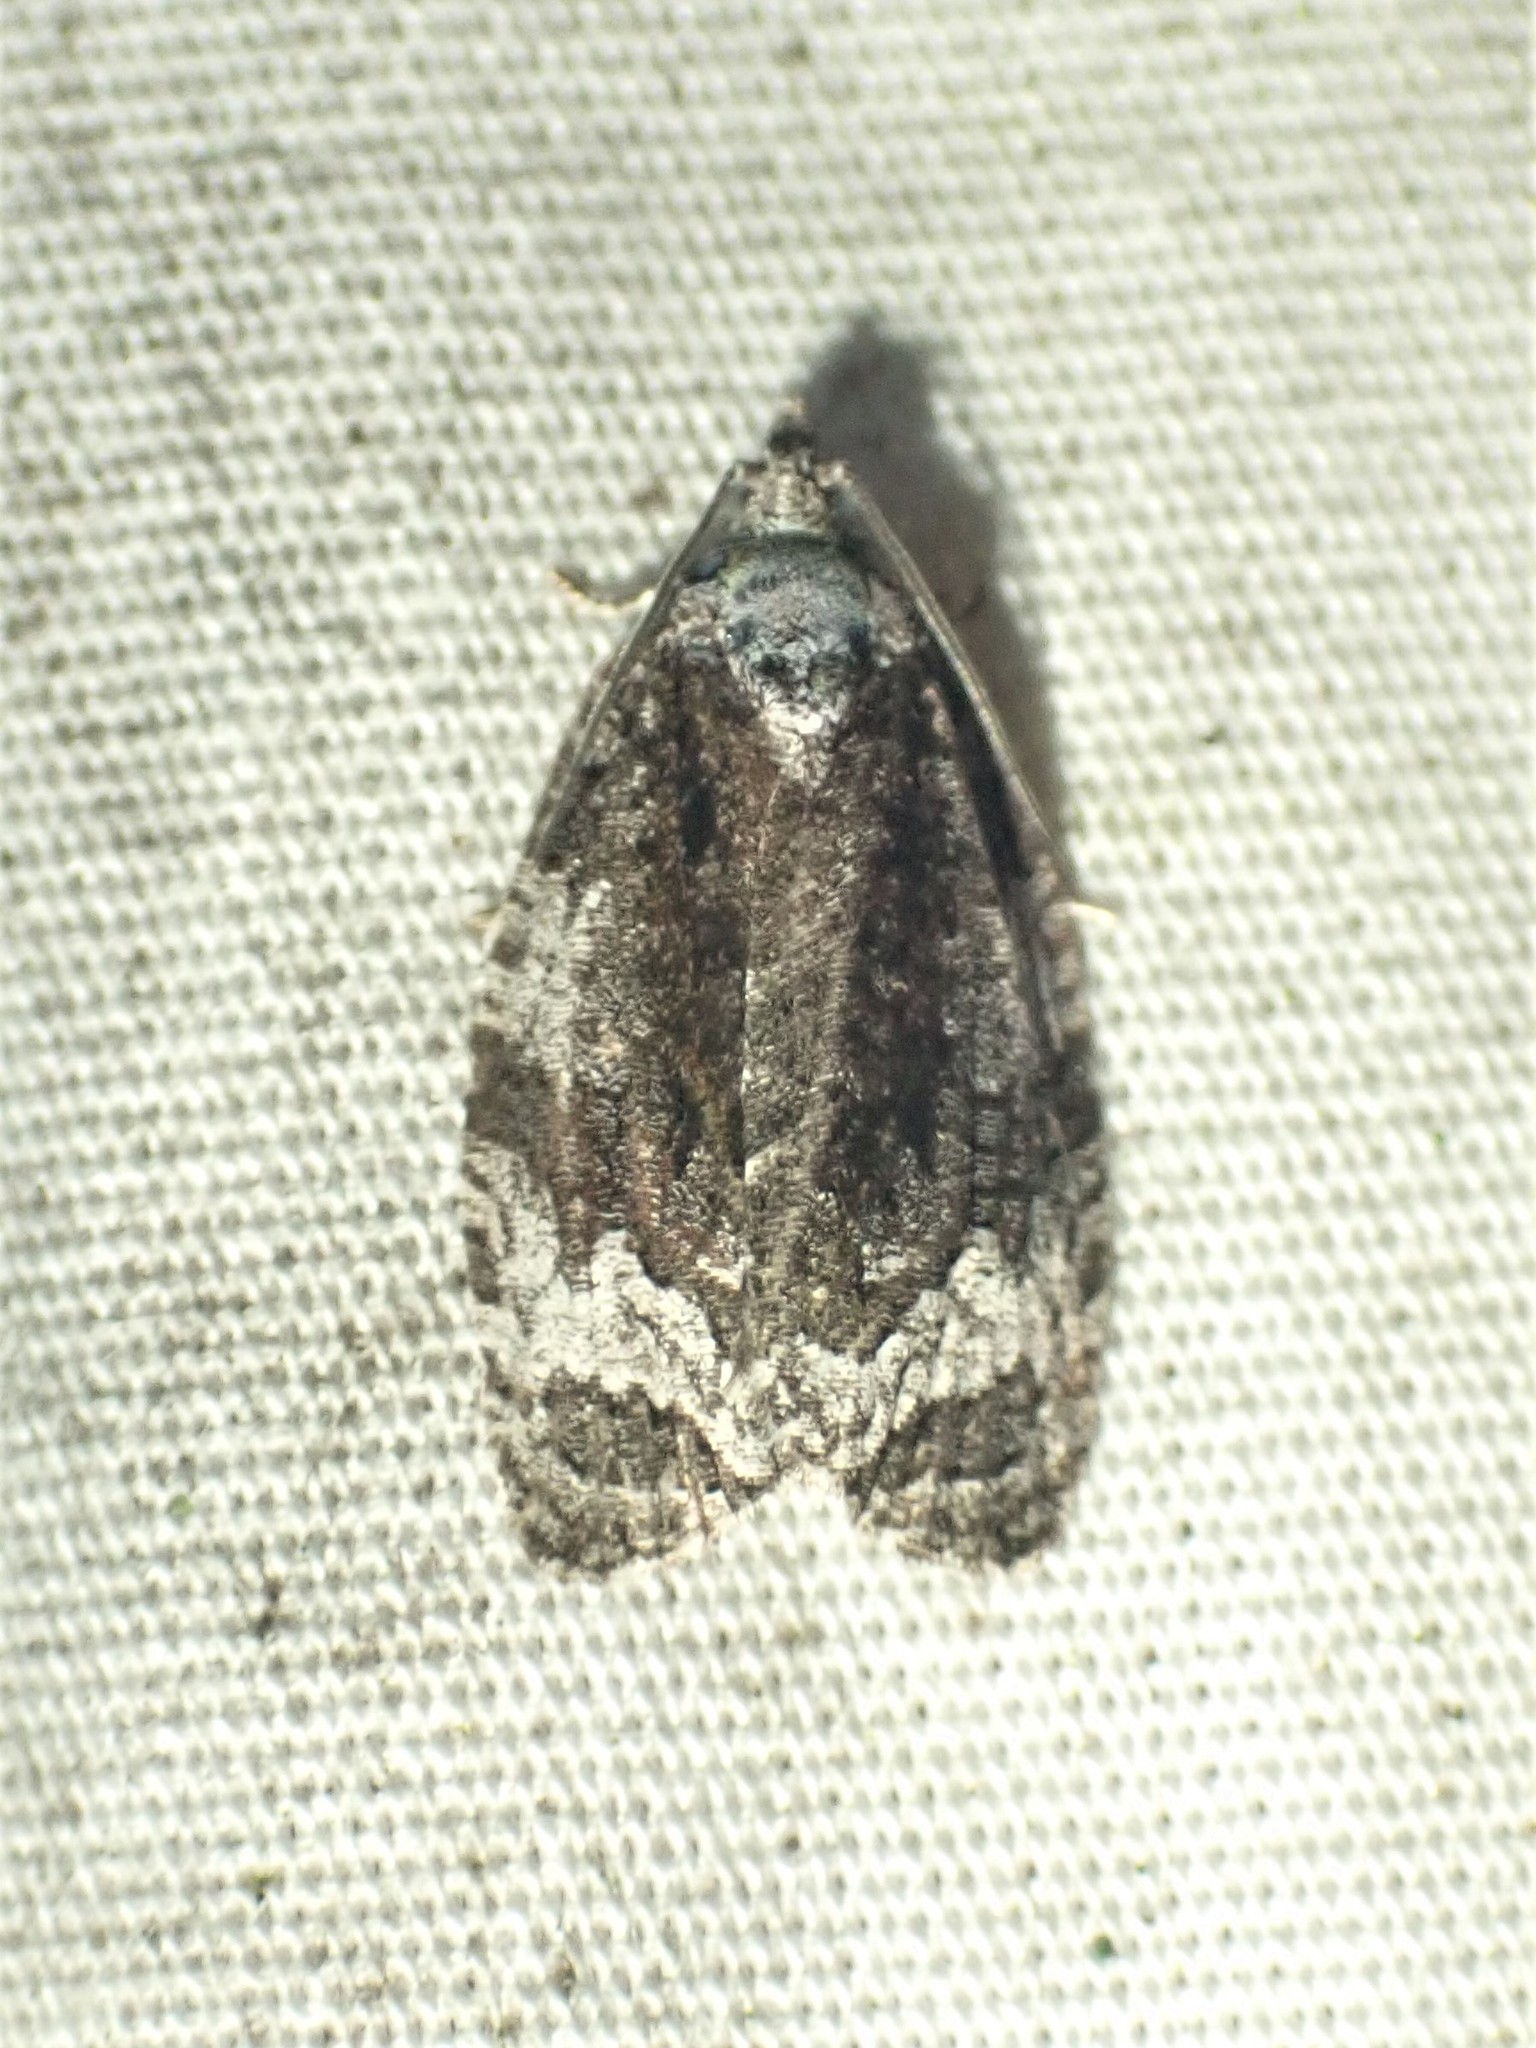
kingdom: Animalia
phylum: Arthropoda
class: Insecta
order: Lepidoptera
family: Tortricidae
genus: Apotomis
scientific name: Apotomis removana
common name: Green aspen leafroller
